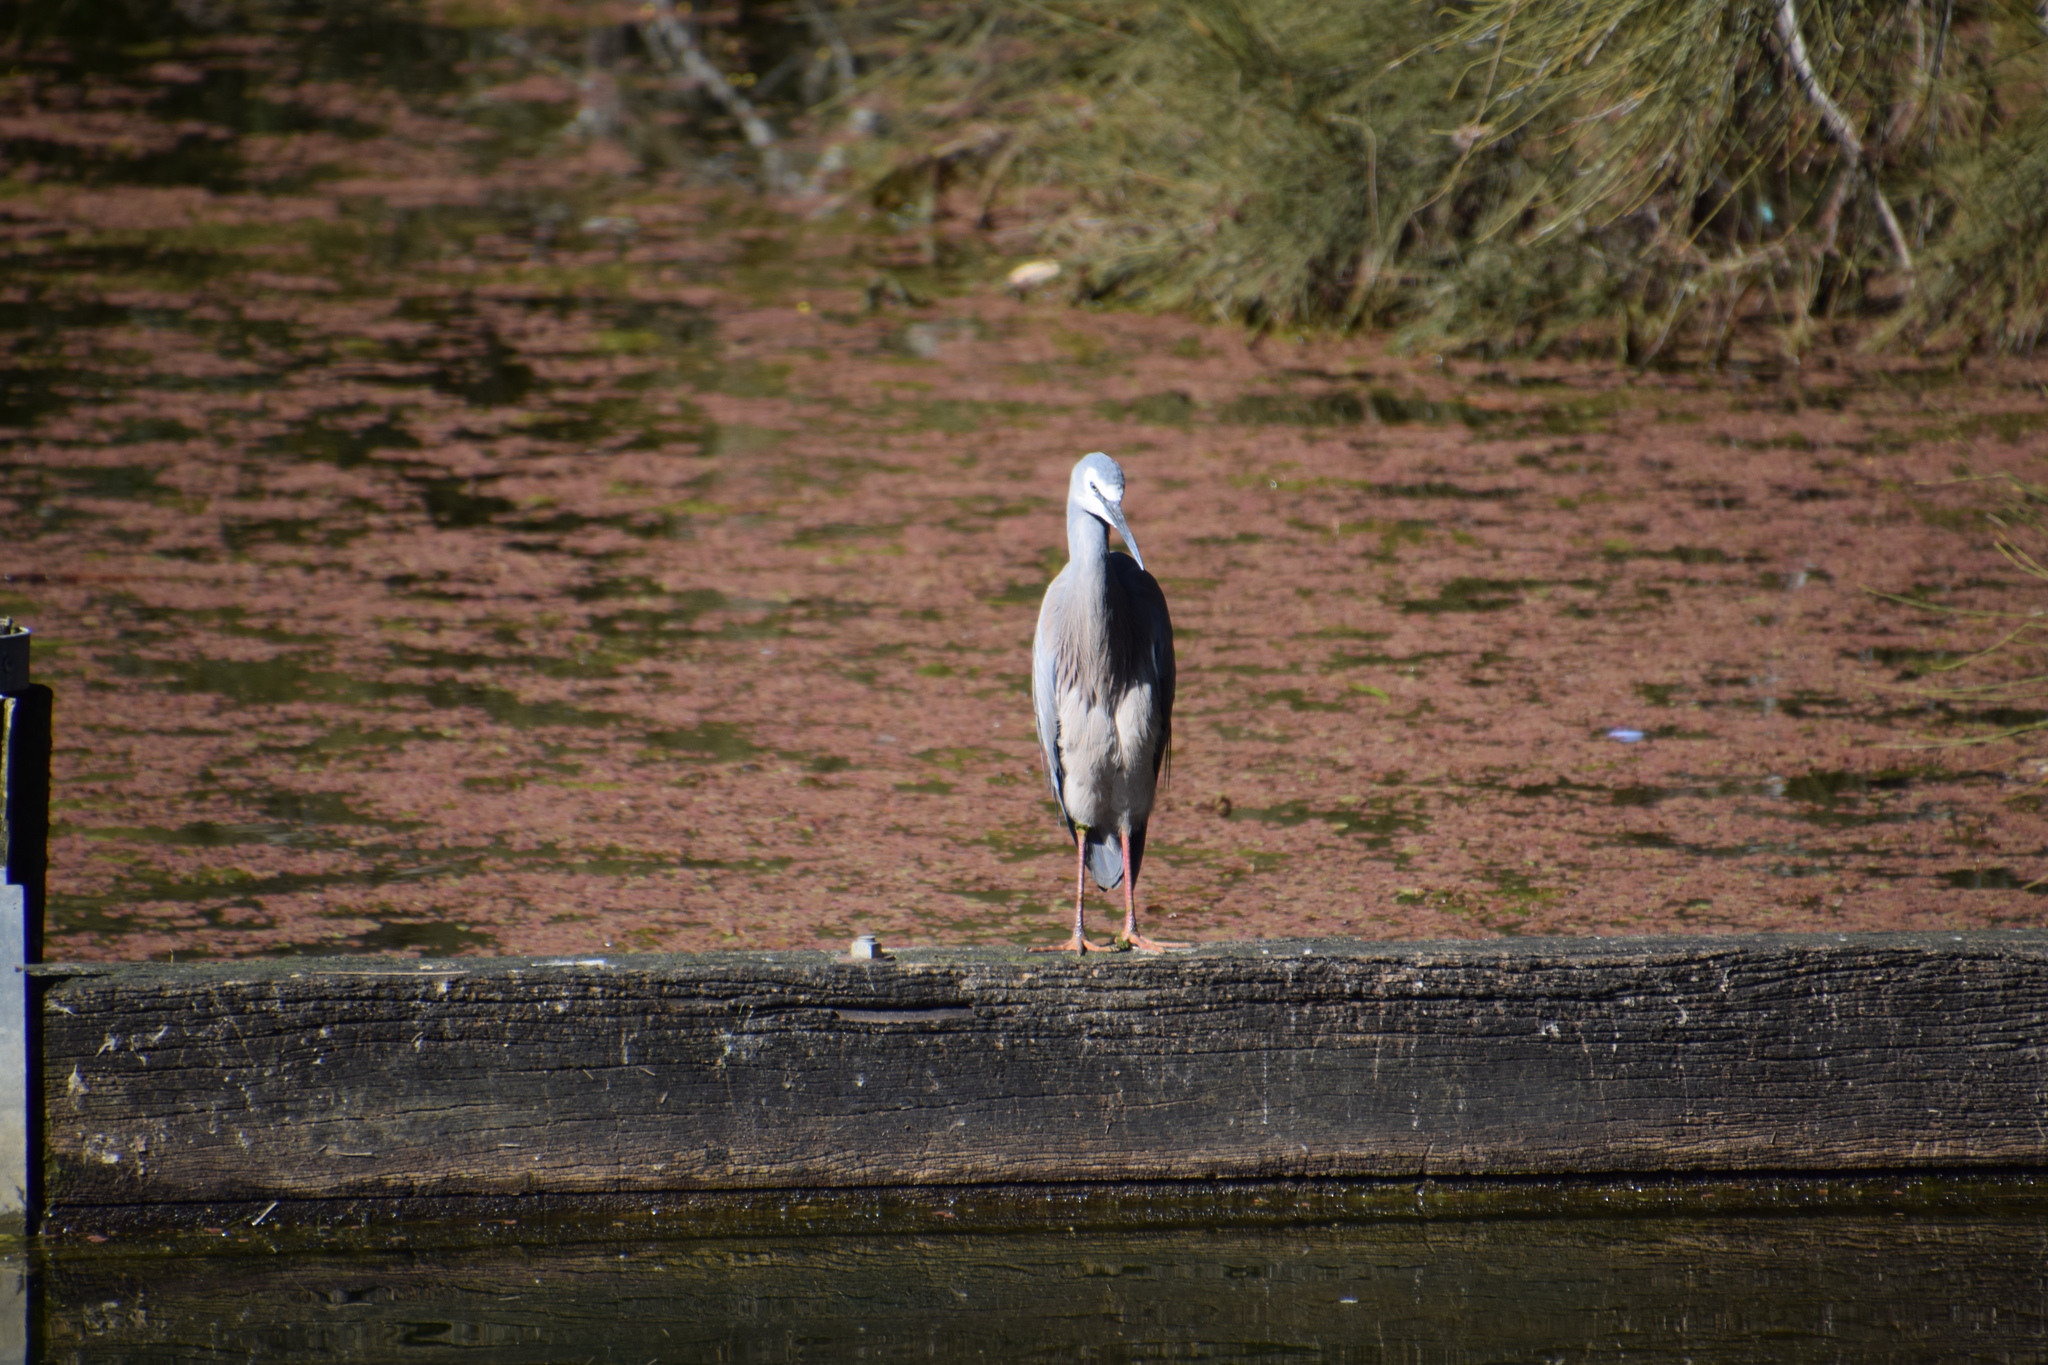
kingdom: Animalia
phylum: Chordata
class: Aves
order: Pelecaniformes
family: Ardeidae
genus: Egretta
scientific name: Egretta novaehollandiae
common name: White-faced heron
